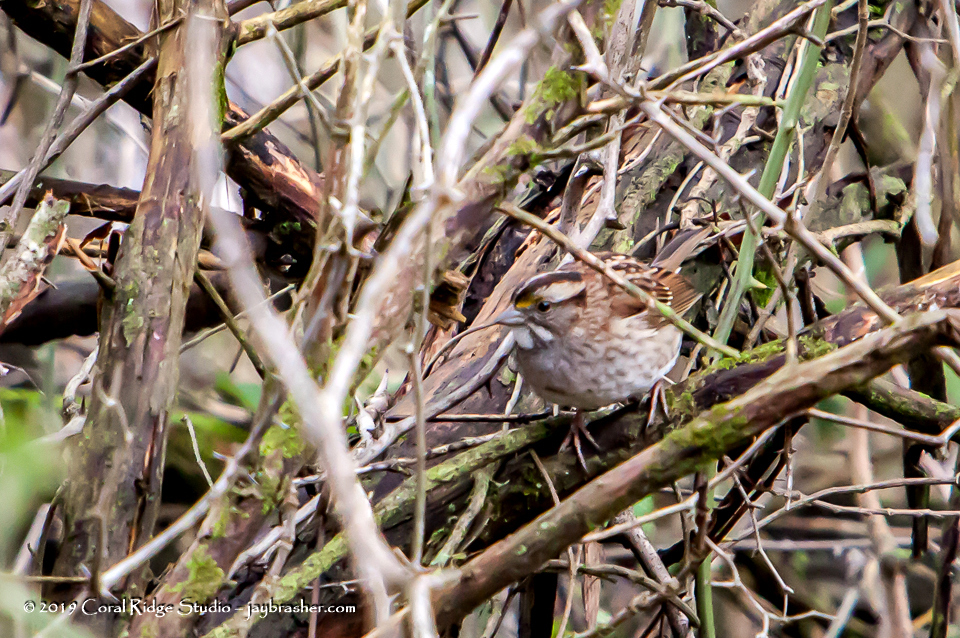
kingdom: Animalia
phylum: Chordata
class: Aves
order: Passeriformes
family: Passerellidae
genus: Zonotrichia
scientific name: Zonotrichia albicollis
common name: White-throated sparrow
